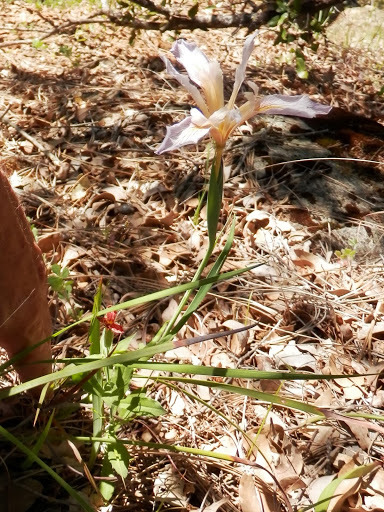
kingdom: Plantae
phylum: Tracheophyta
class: Liliopsida
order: Asparagales
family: Iridaceae
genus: Iris
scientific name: Iris macrosiphon
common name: Ground iris
